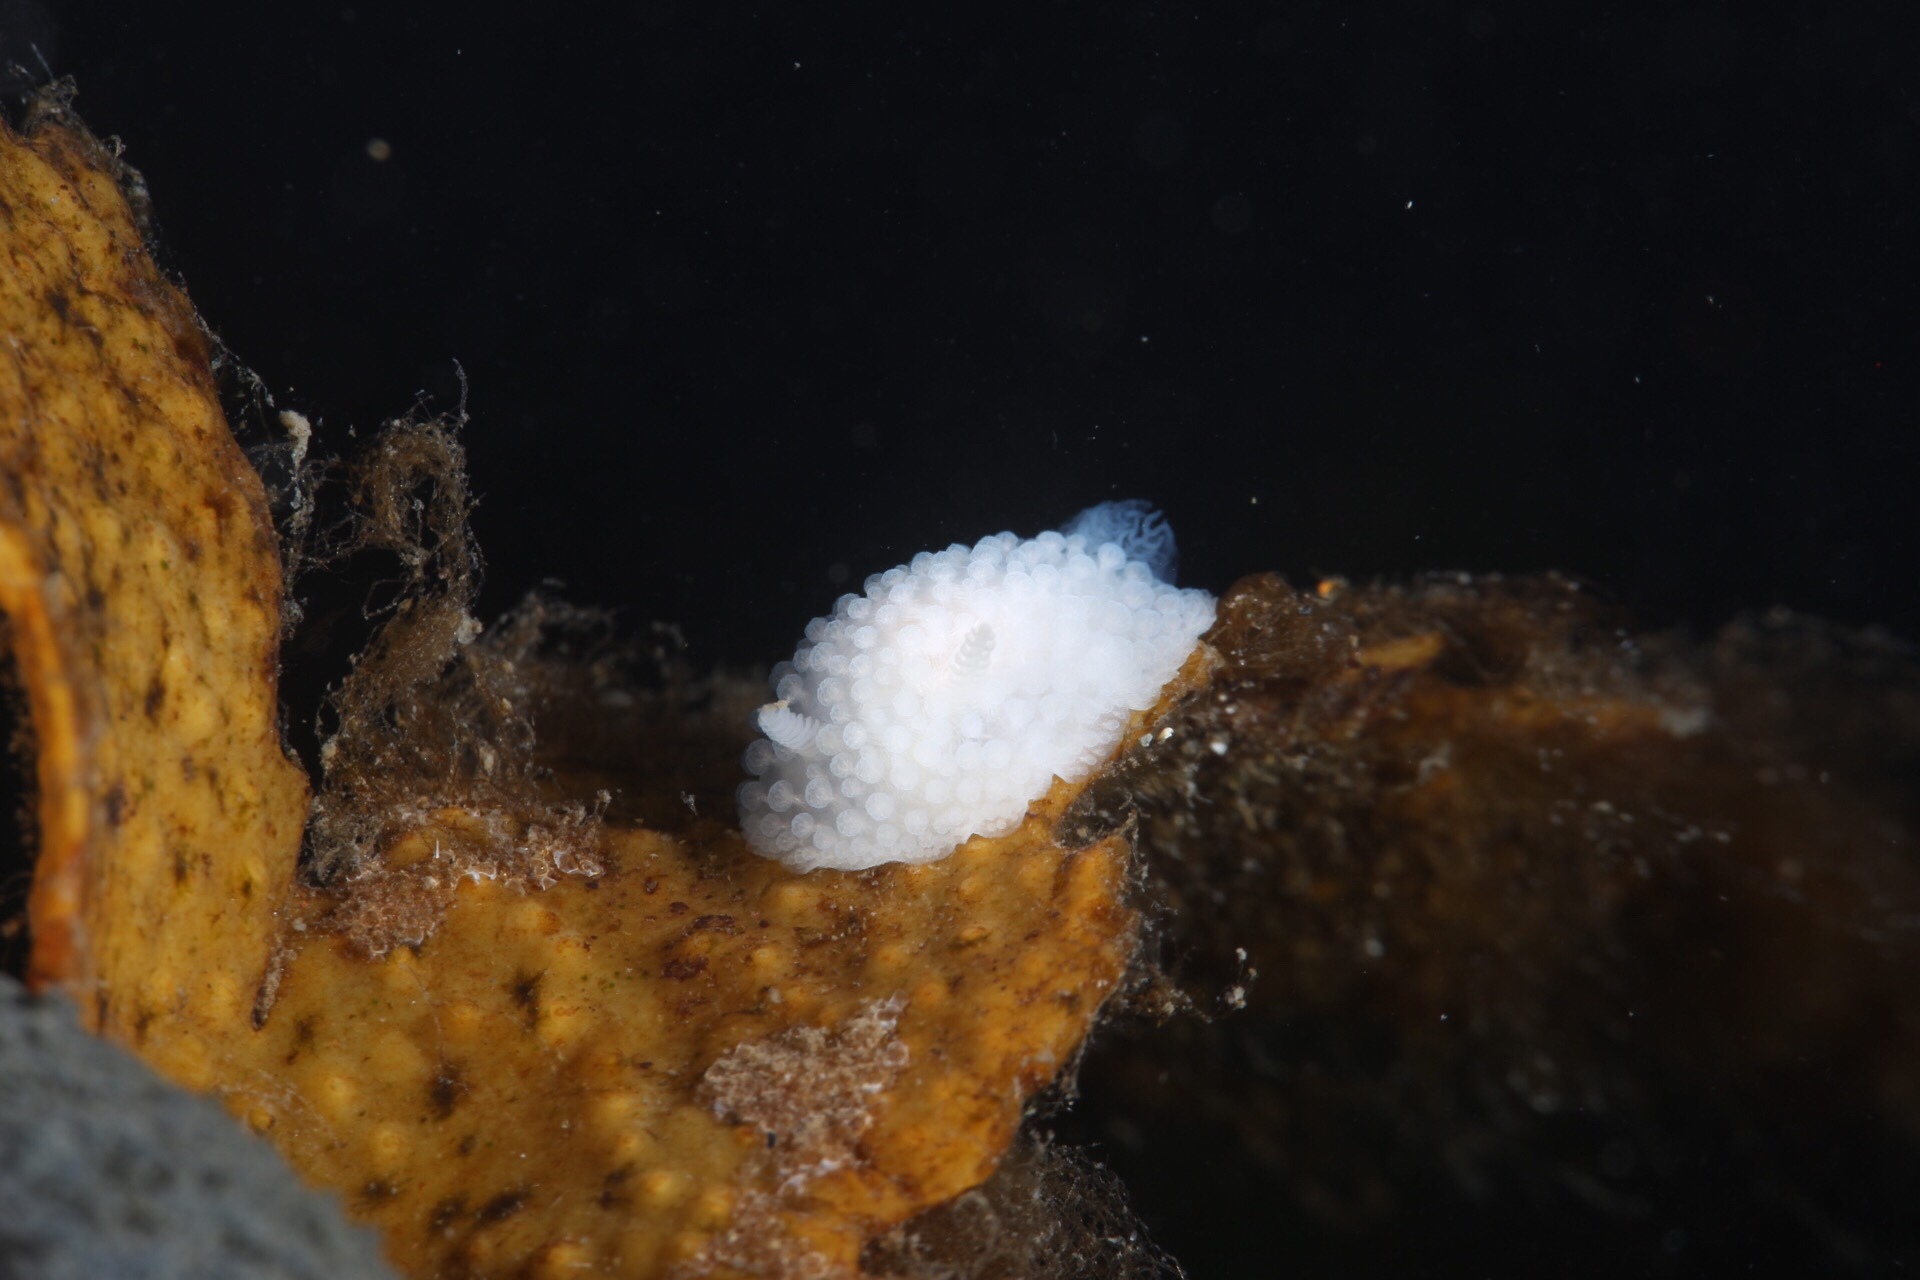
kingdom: Animalia
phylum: Mollusca
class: Gastropoda
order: Nudibranchia
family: Onchidorididae
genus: Onchidoris
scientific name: Onchidoris muricata
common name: Rough doris
